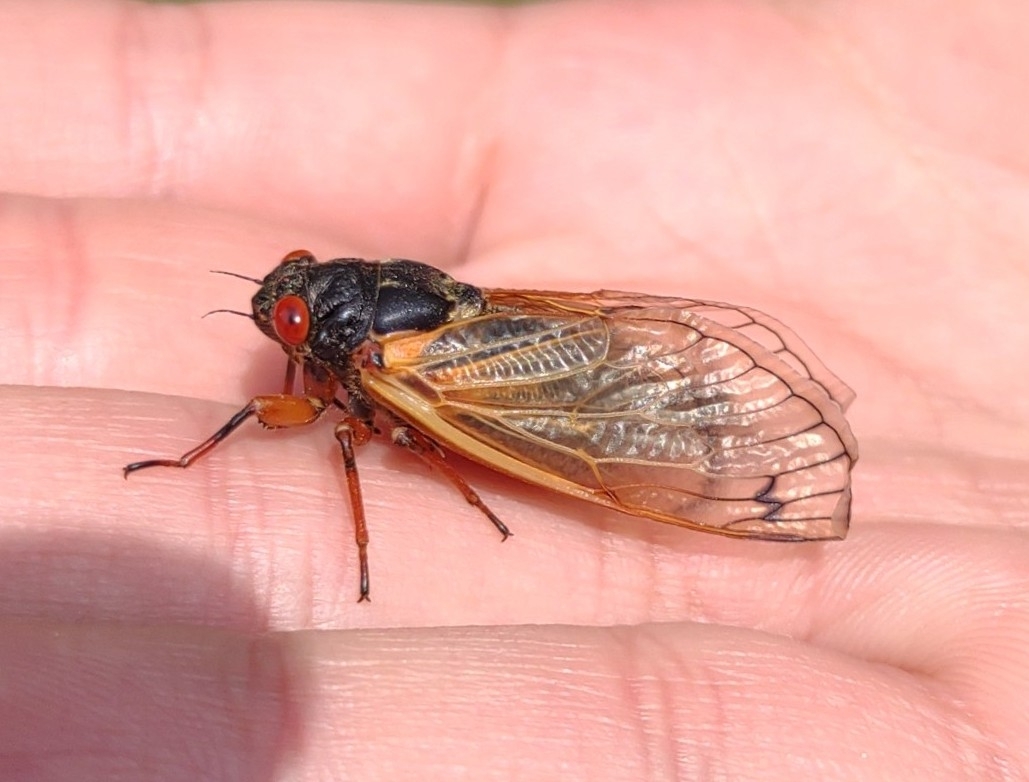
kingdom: Animalia
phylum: Arthropoda
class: Insecta
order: Hemiptera
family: Cicadidae
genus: Magicicada
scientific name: Magicicada
